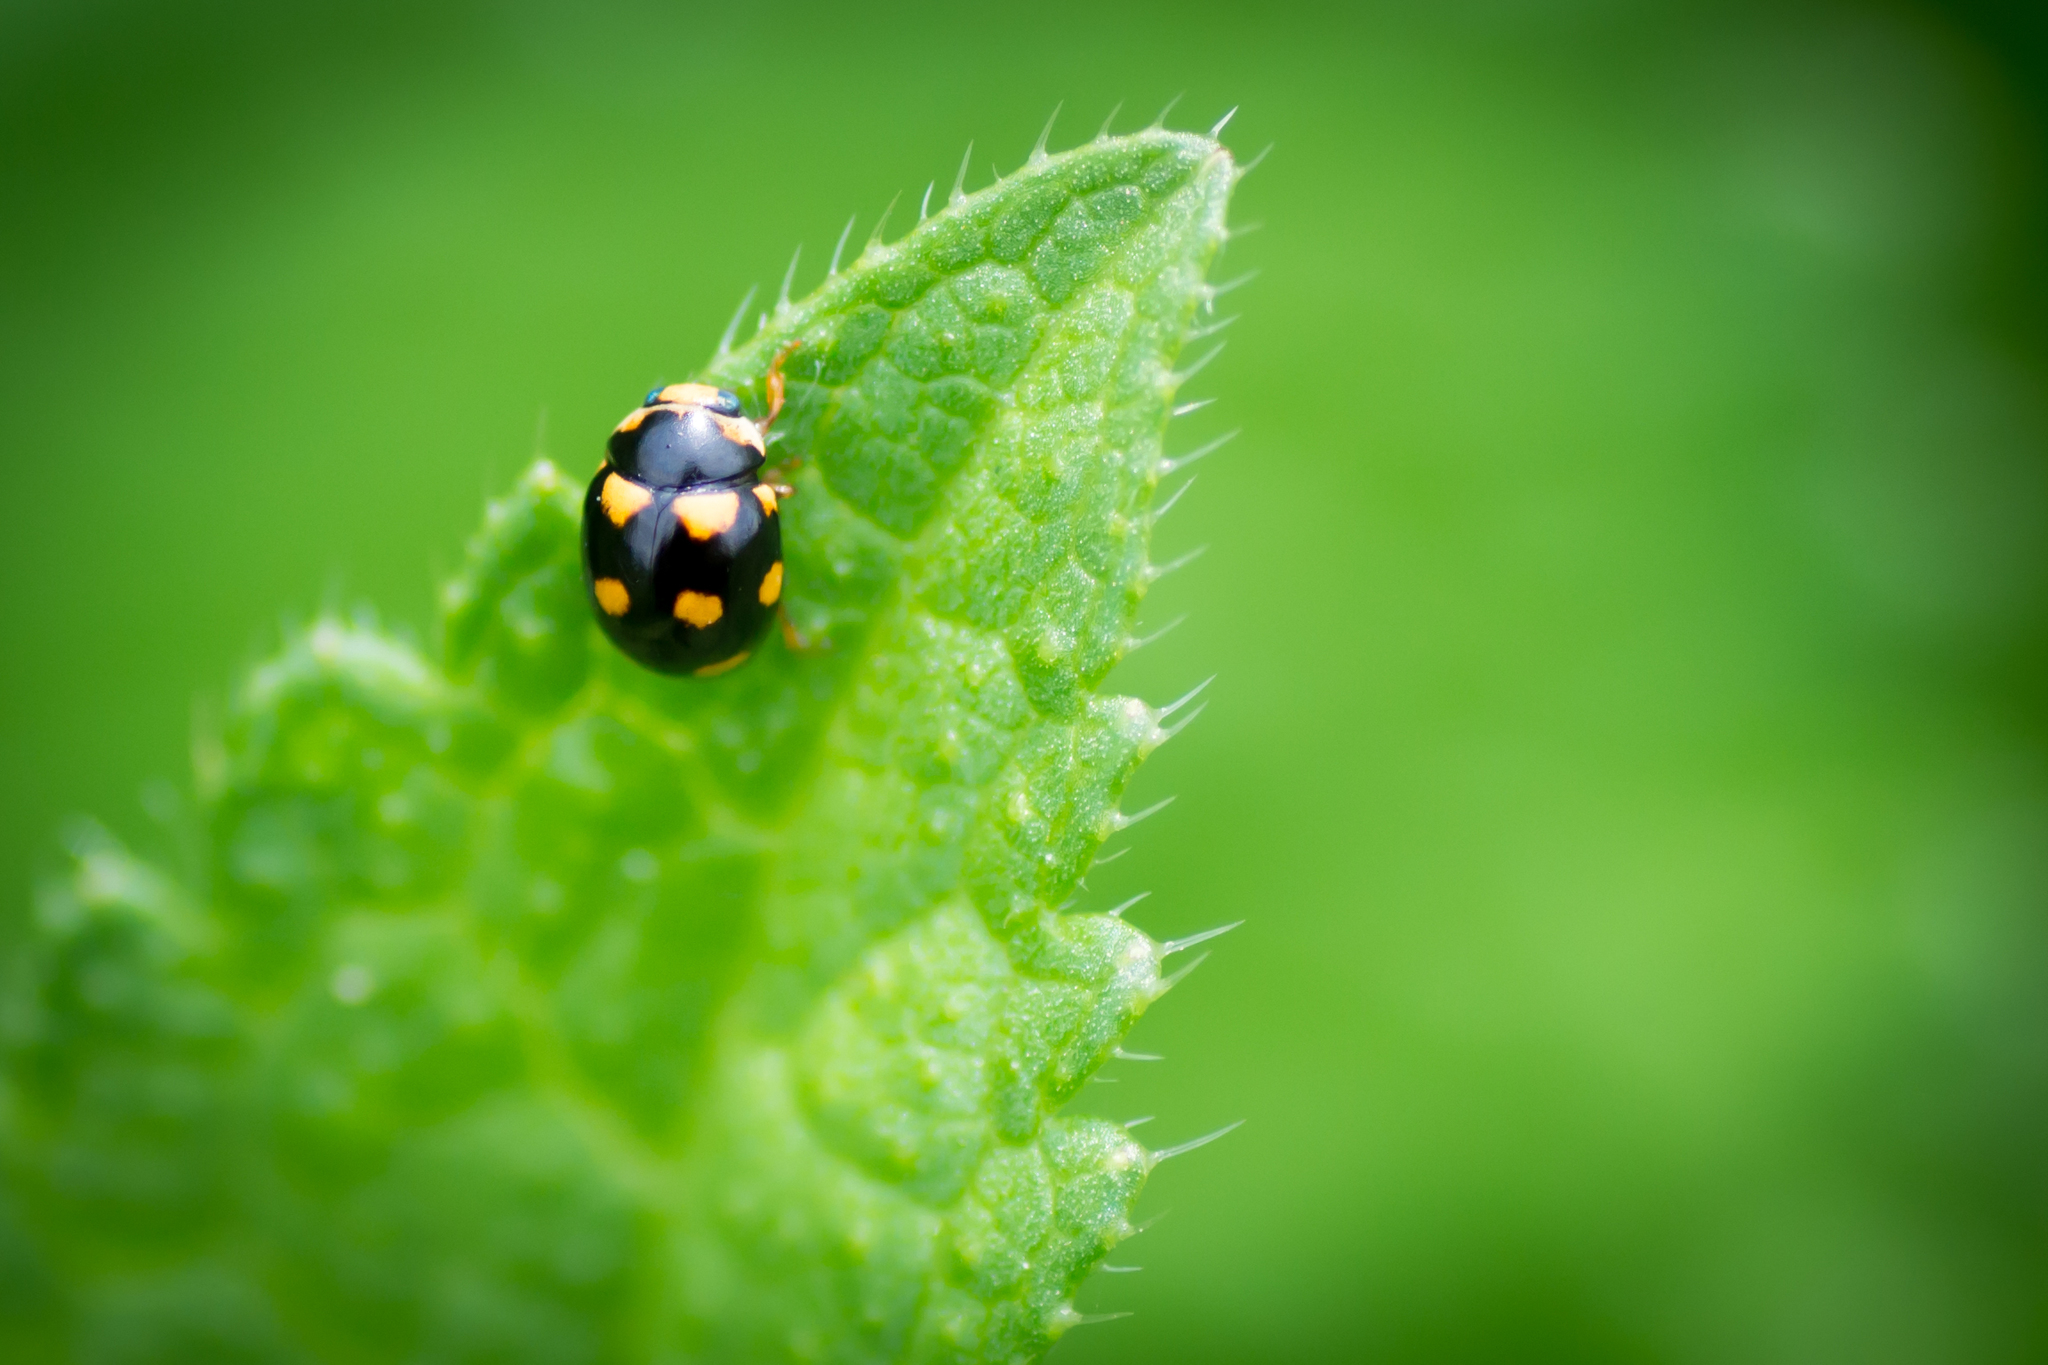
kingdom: Animalia
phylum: Arthropoda
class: Insecta
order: Coleoptera
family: Coccinellidae
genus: Brachiacantha
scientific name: Brachiacantha ursina
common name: Ursine spurleg lady beetle
